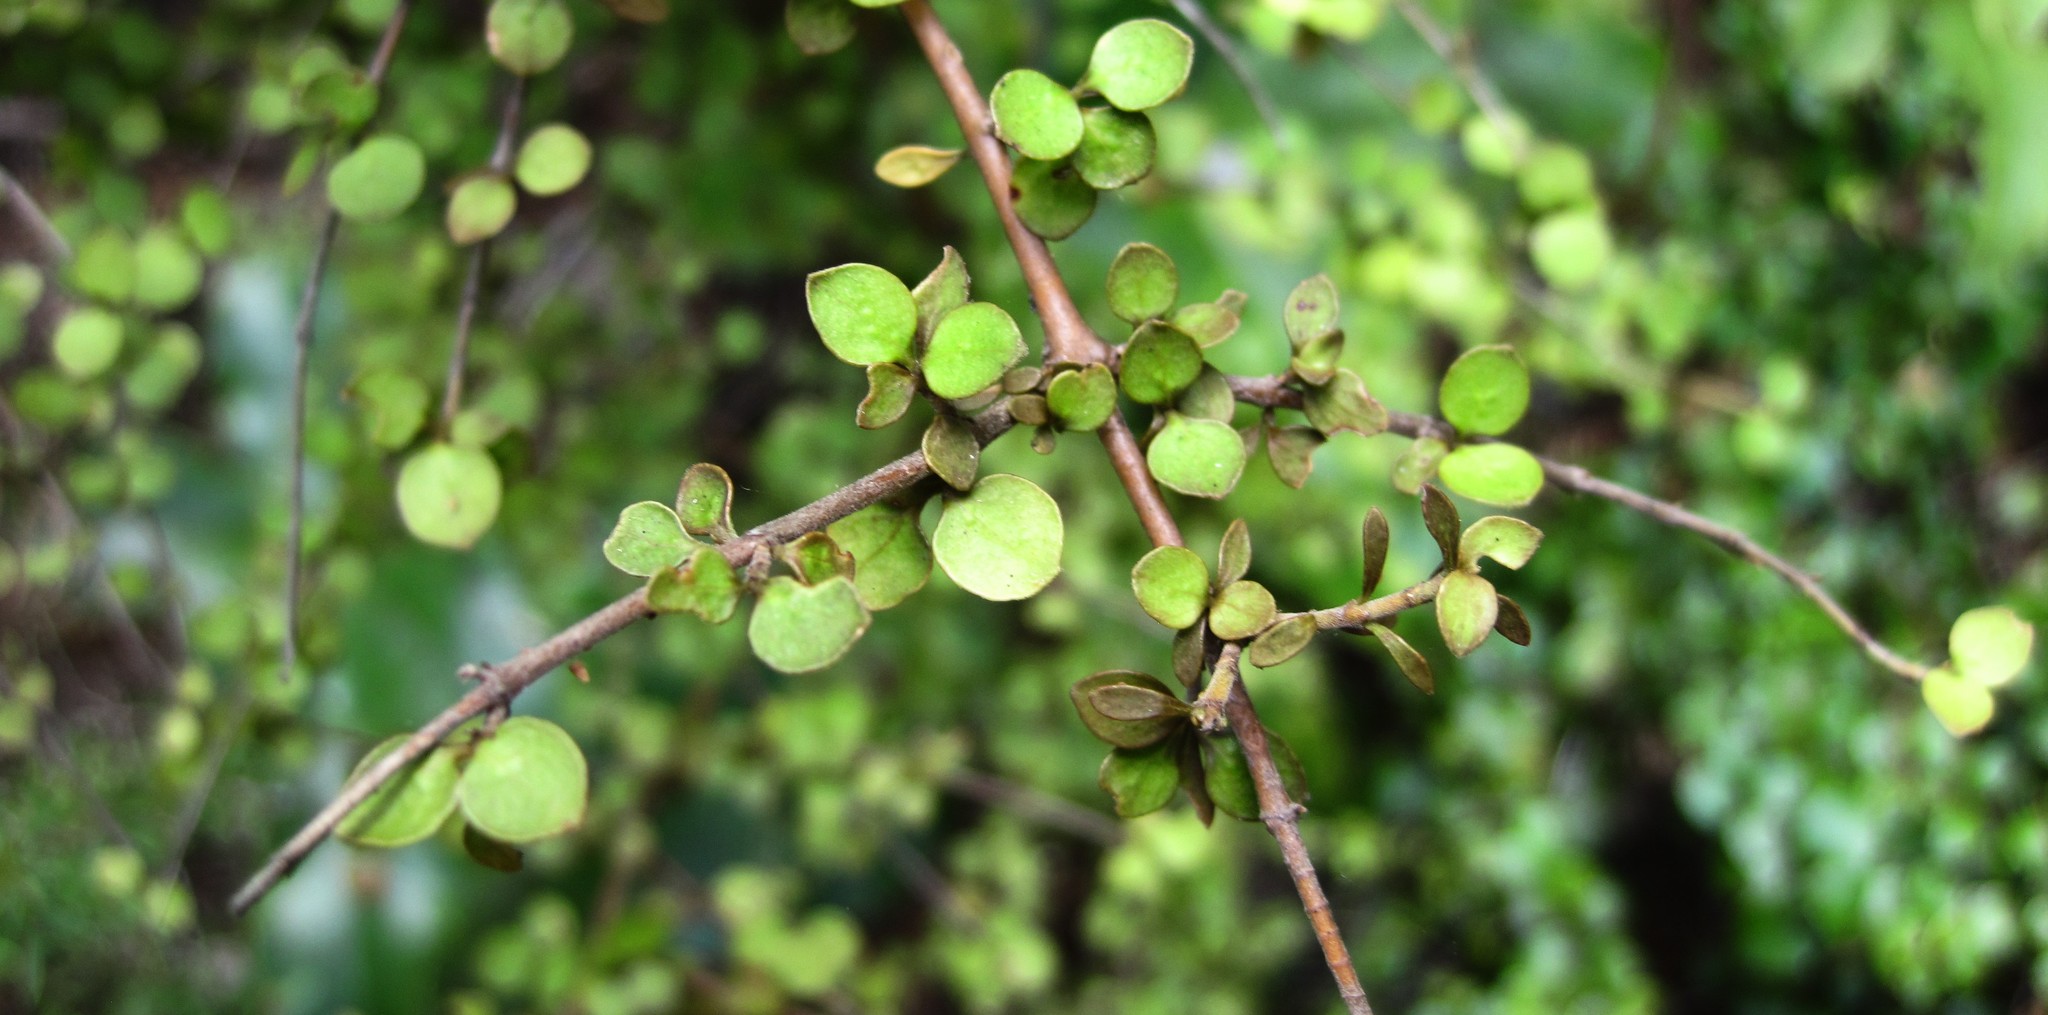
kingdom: Plantae
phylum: Tracheophyta
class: Magnoliopsida
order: Gentianales
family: Rubiaceae
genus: Coprosma
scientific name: Coprosma rhamnoides
